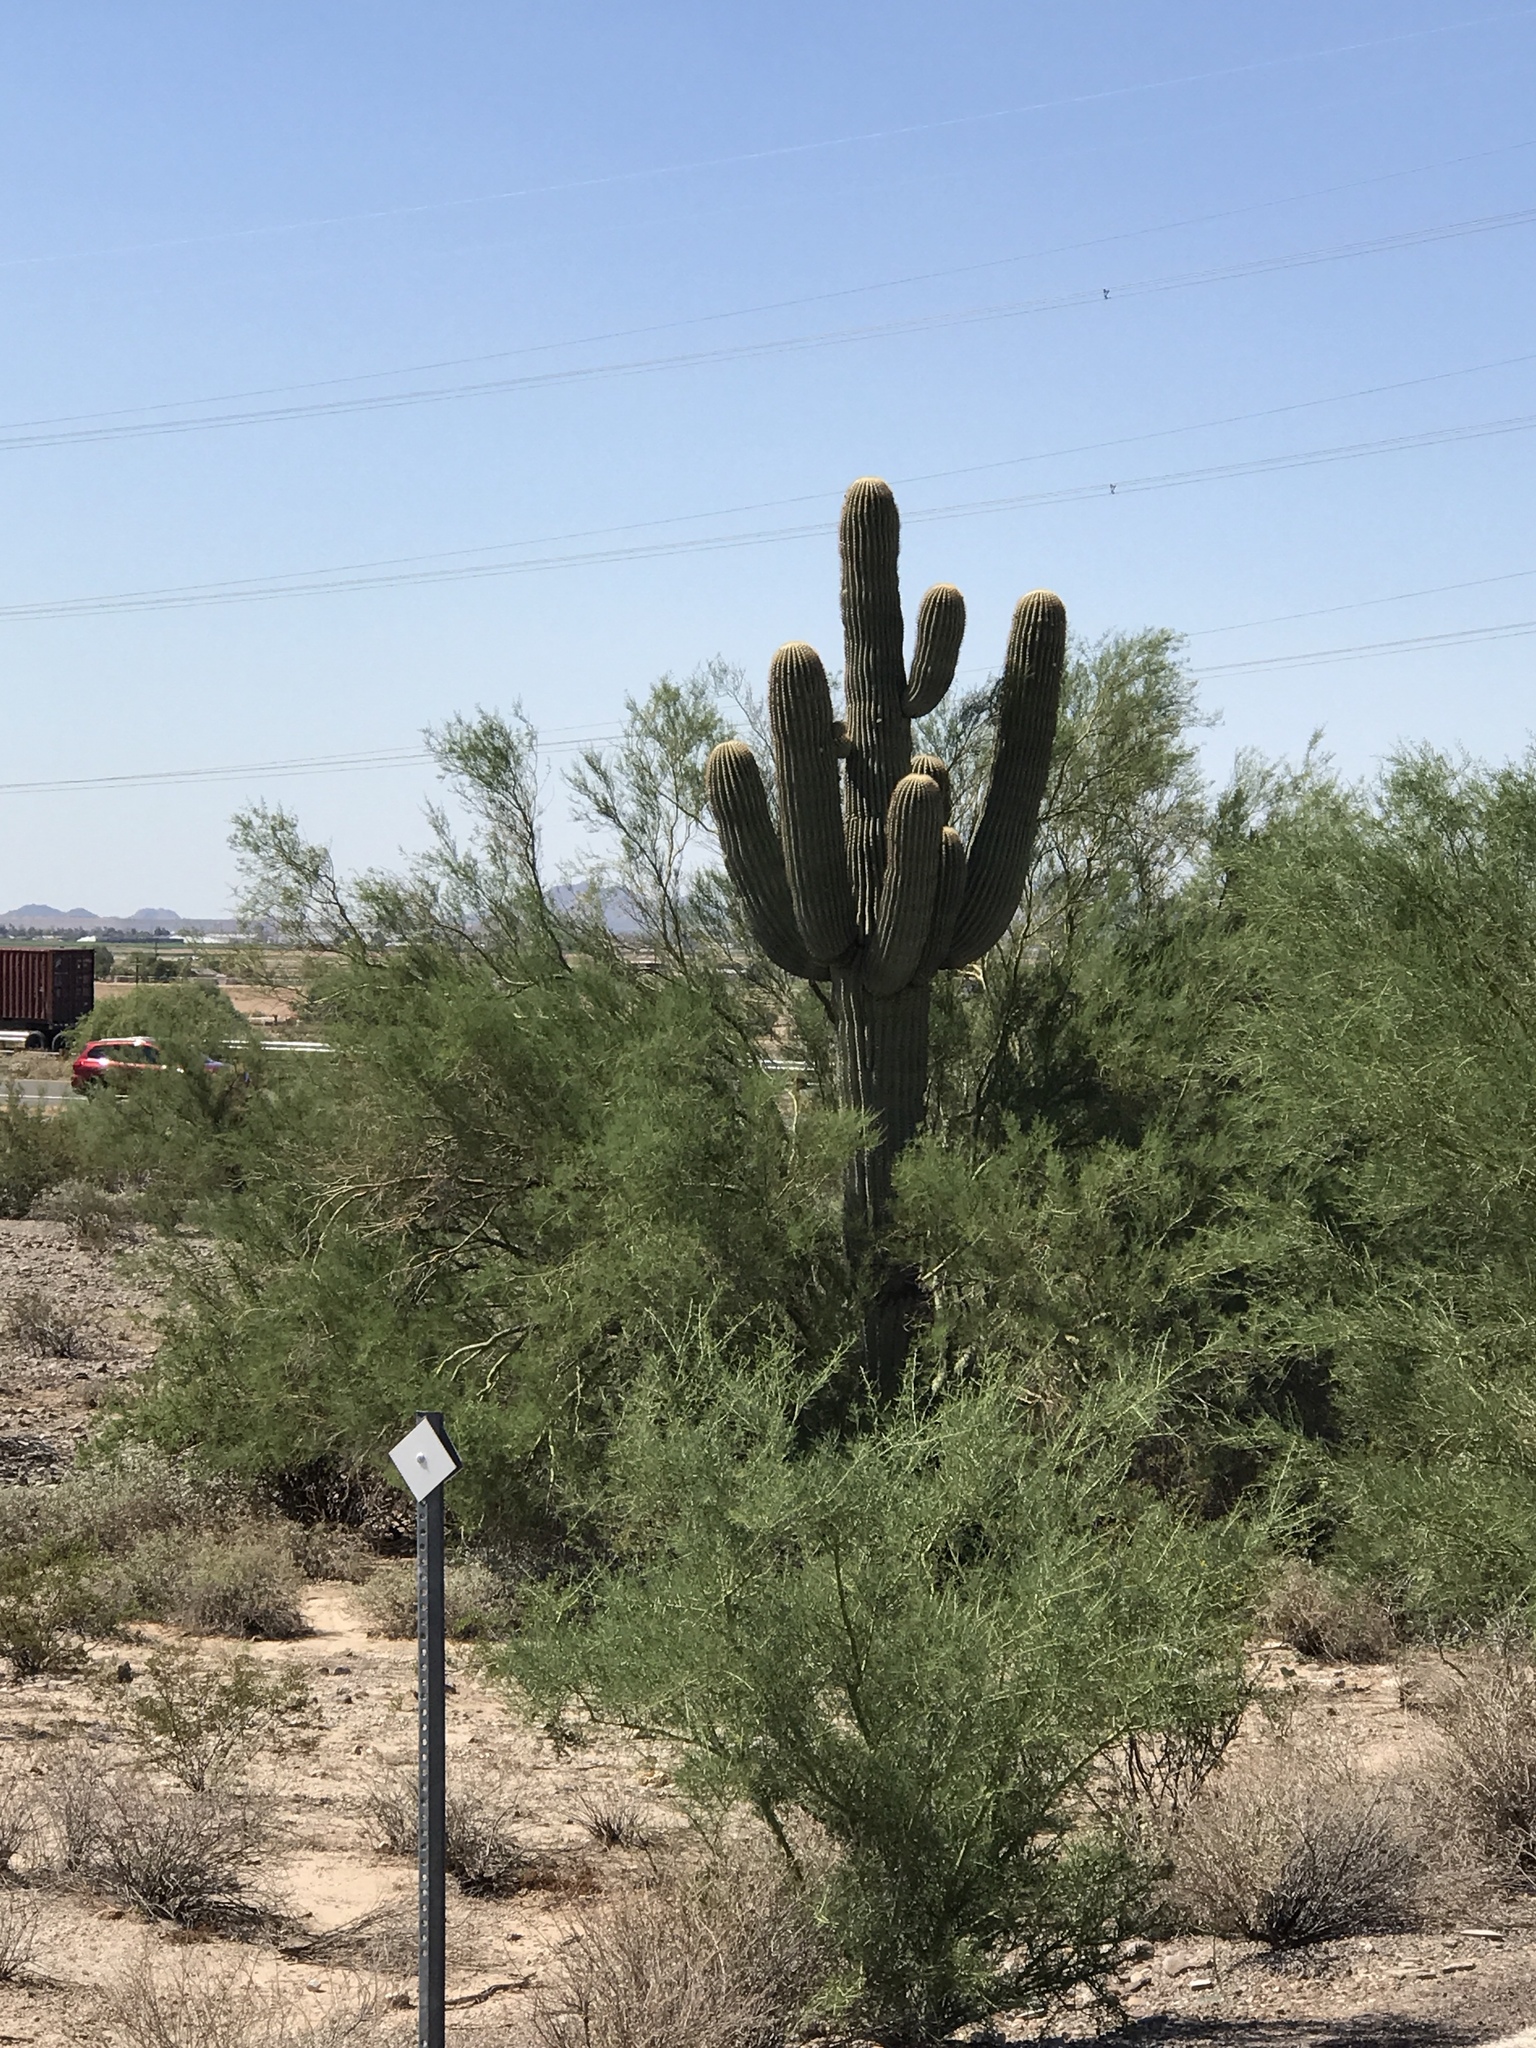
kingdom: Plantae
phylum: Tracheophyta
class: Magnoliopsida
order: Caryophyllales
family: Cactaceae
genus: Carnegiea
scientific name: Carnegiea gigantea
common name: Saguaro
